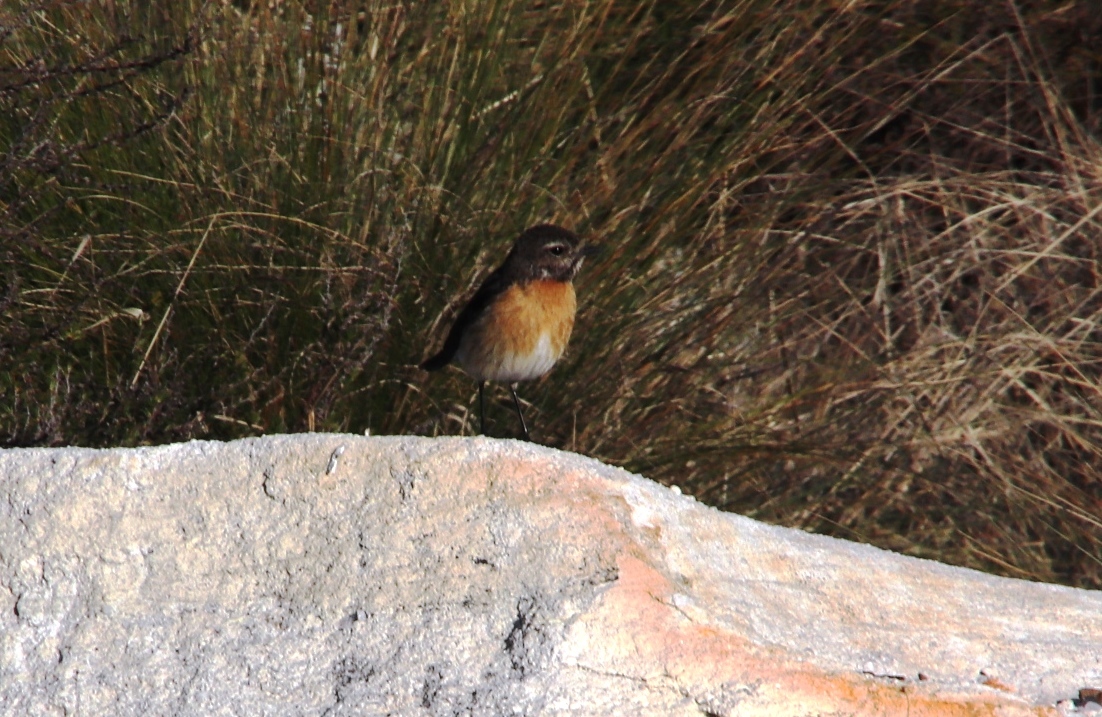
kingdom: Animalia
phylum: Chordata
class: Aves
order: Passeriformes
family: Muscicapidae
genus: Saxicola
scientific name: Saxicola torquatus
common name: African stonechat
